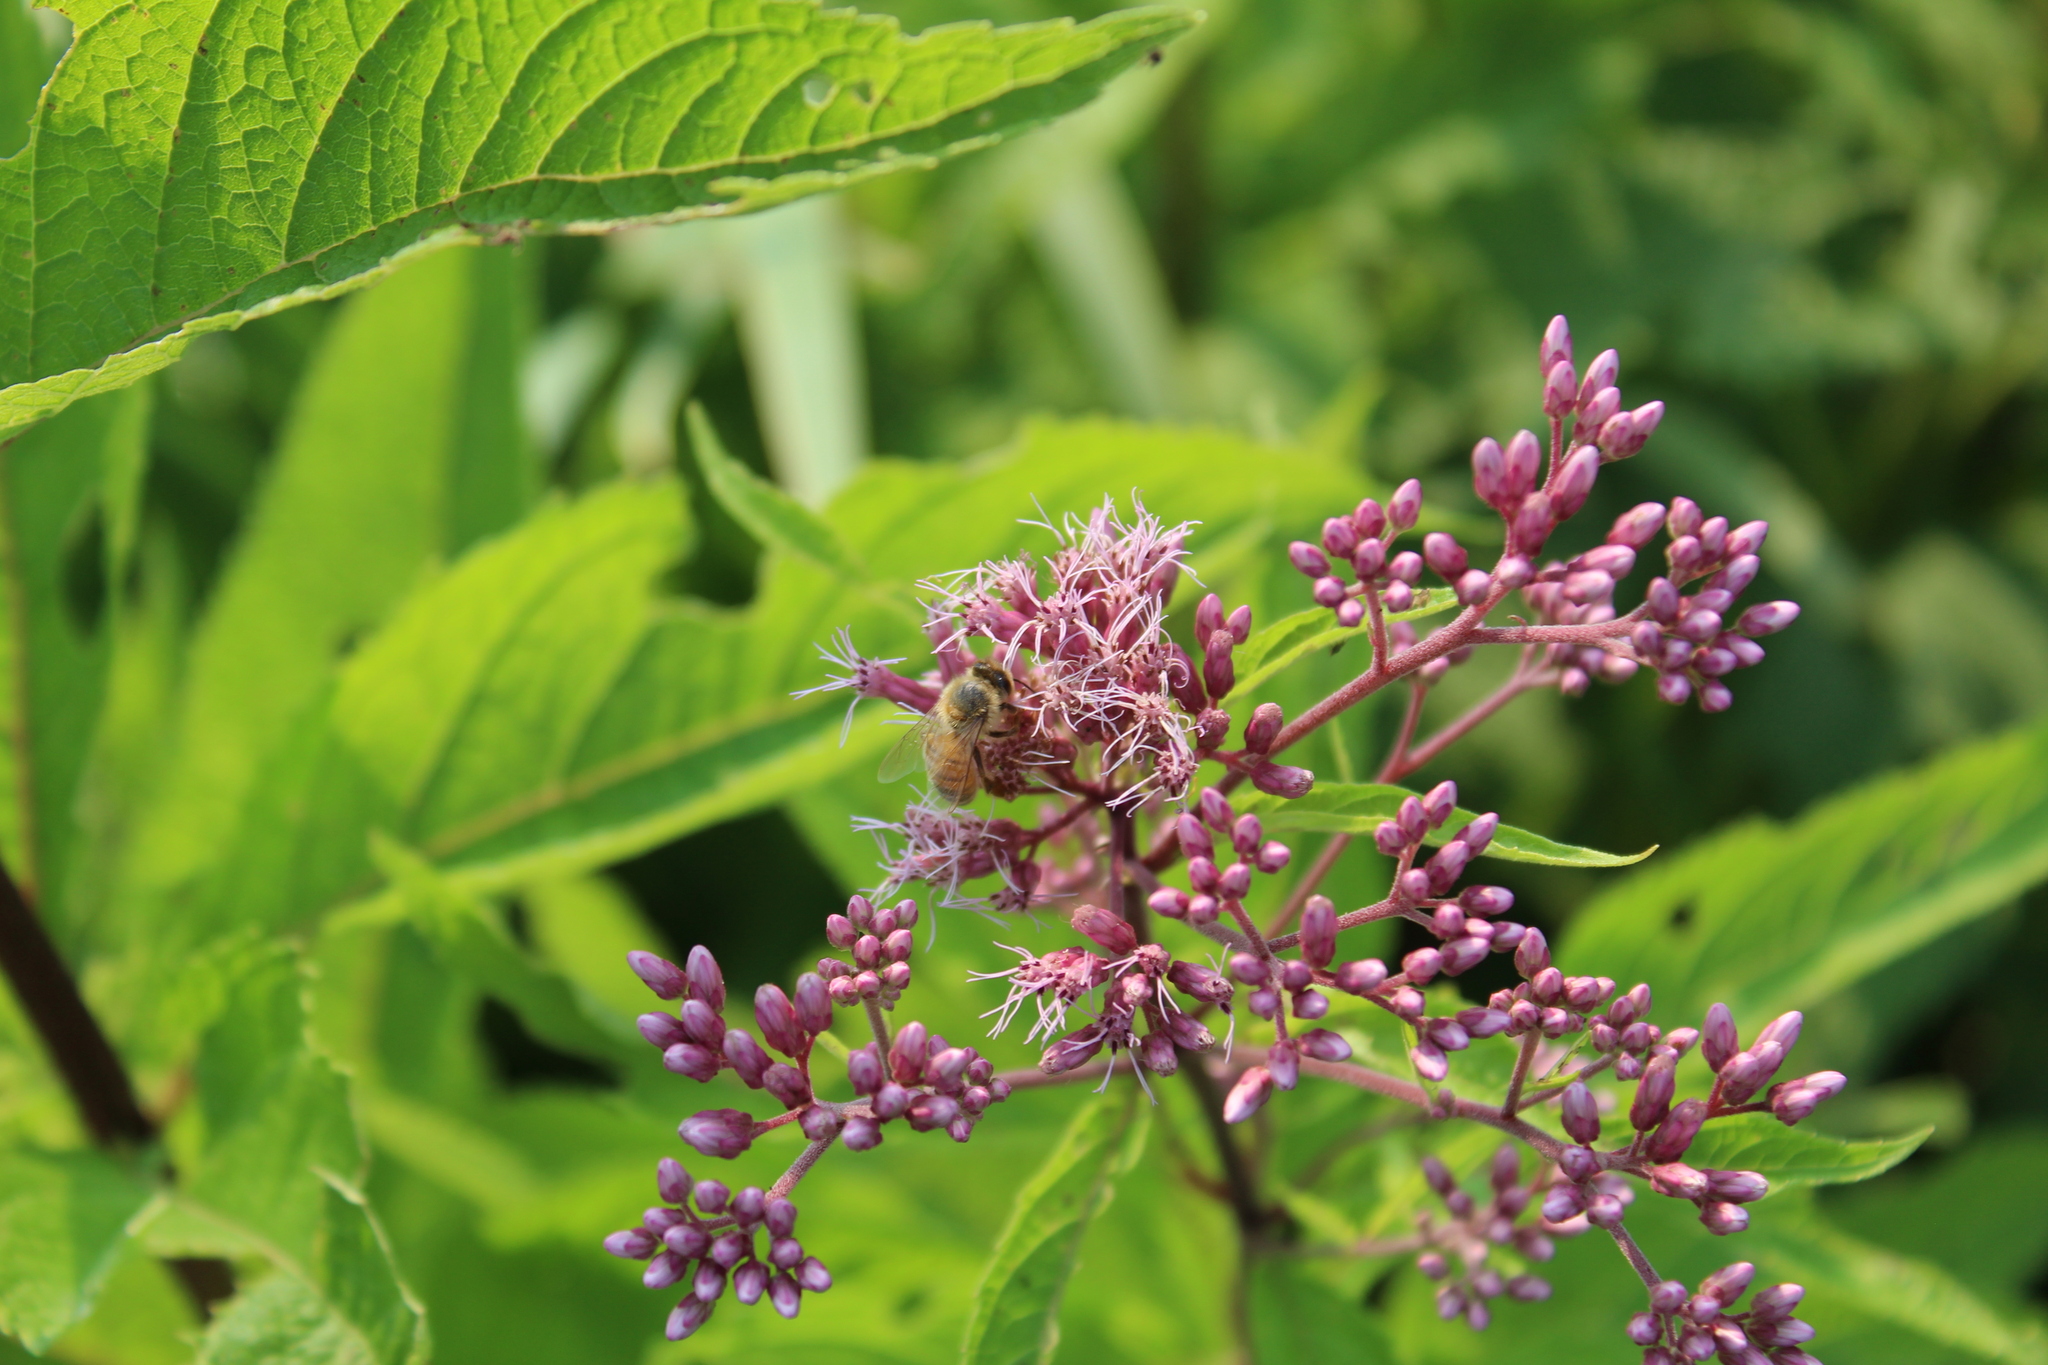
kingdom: Animalia
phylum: Arthropoda
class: Insecta
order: Hymenoptera
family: Apidae
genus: Apis
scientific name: Apis mellifera
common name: Honey bee
